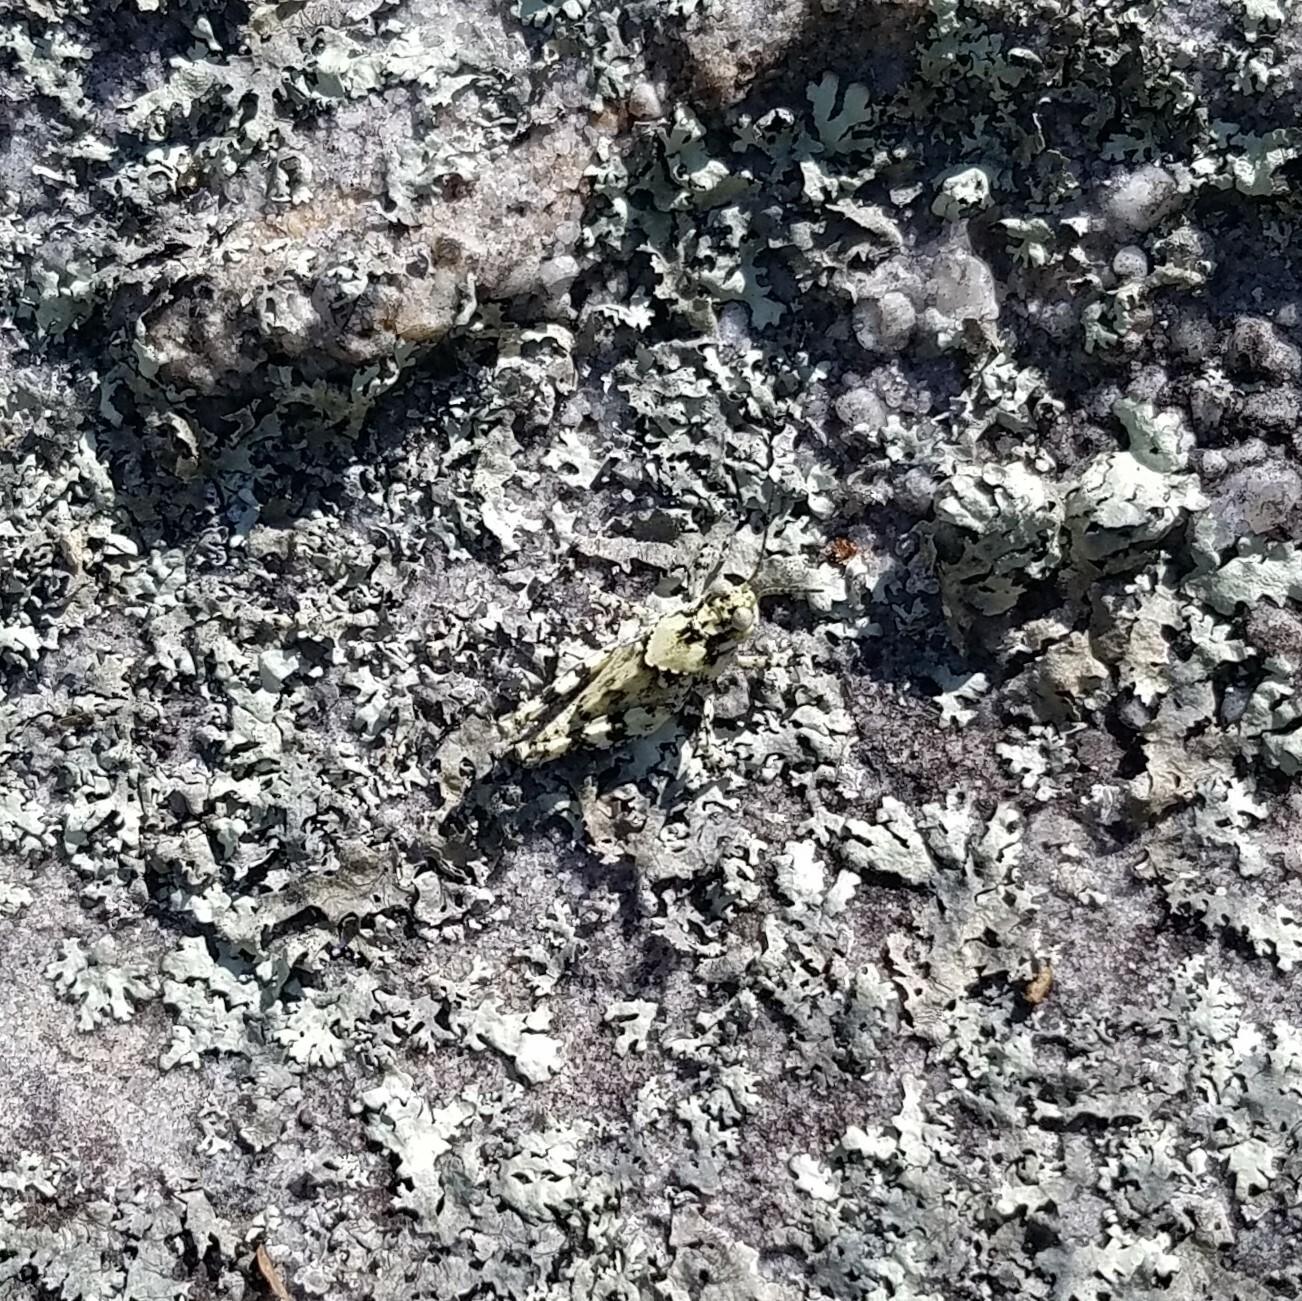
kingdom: Animalia
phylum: Arthropoda
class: Insecta
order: Orthoptera
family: Acrididae
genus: Trimerotropis
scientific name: Trimerotropis saxatilis
